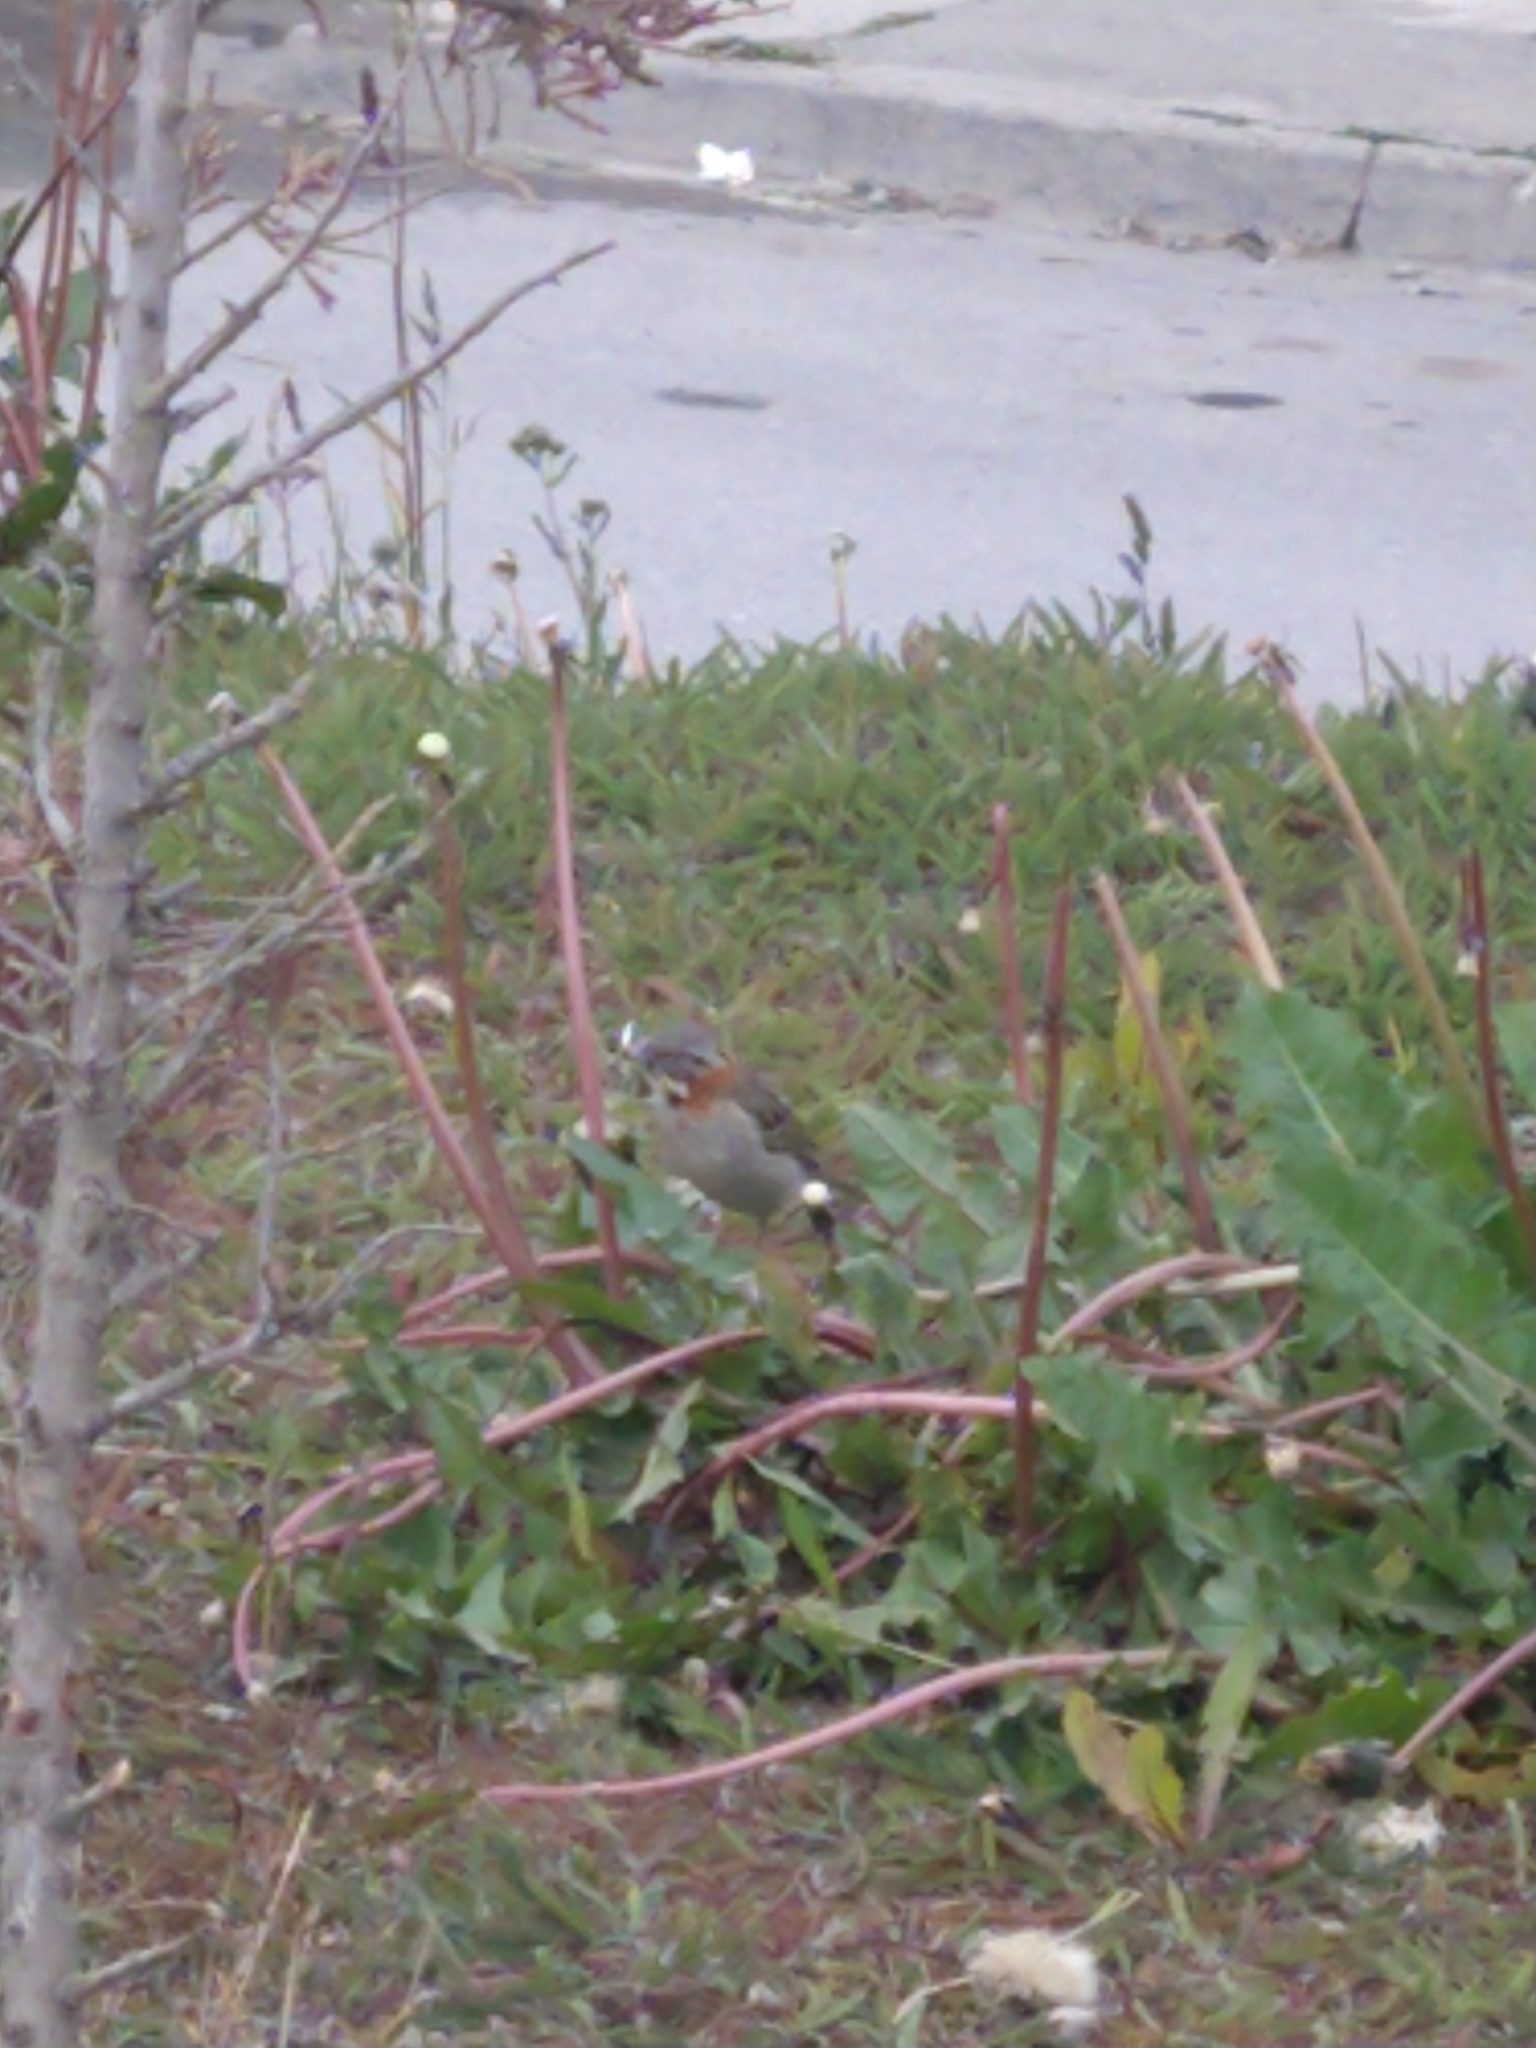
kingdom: Animalia
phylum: Chordata
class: Aves
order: Passeriformes
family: Passerellidae
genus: Zonotrichia
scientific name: Zonotrichia capensis
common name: Rufous-collared sparrow
